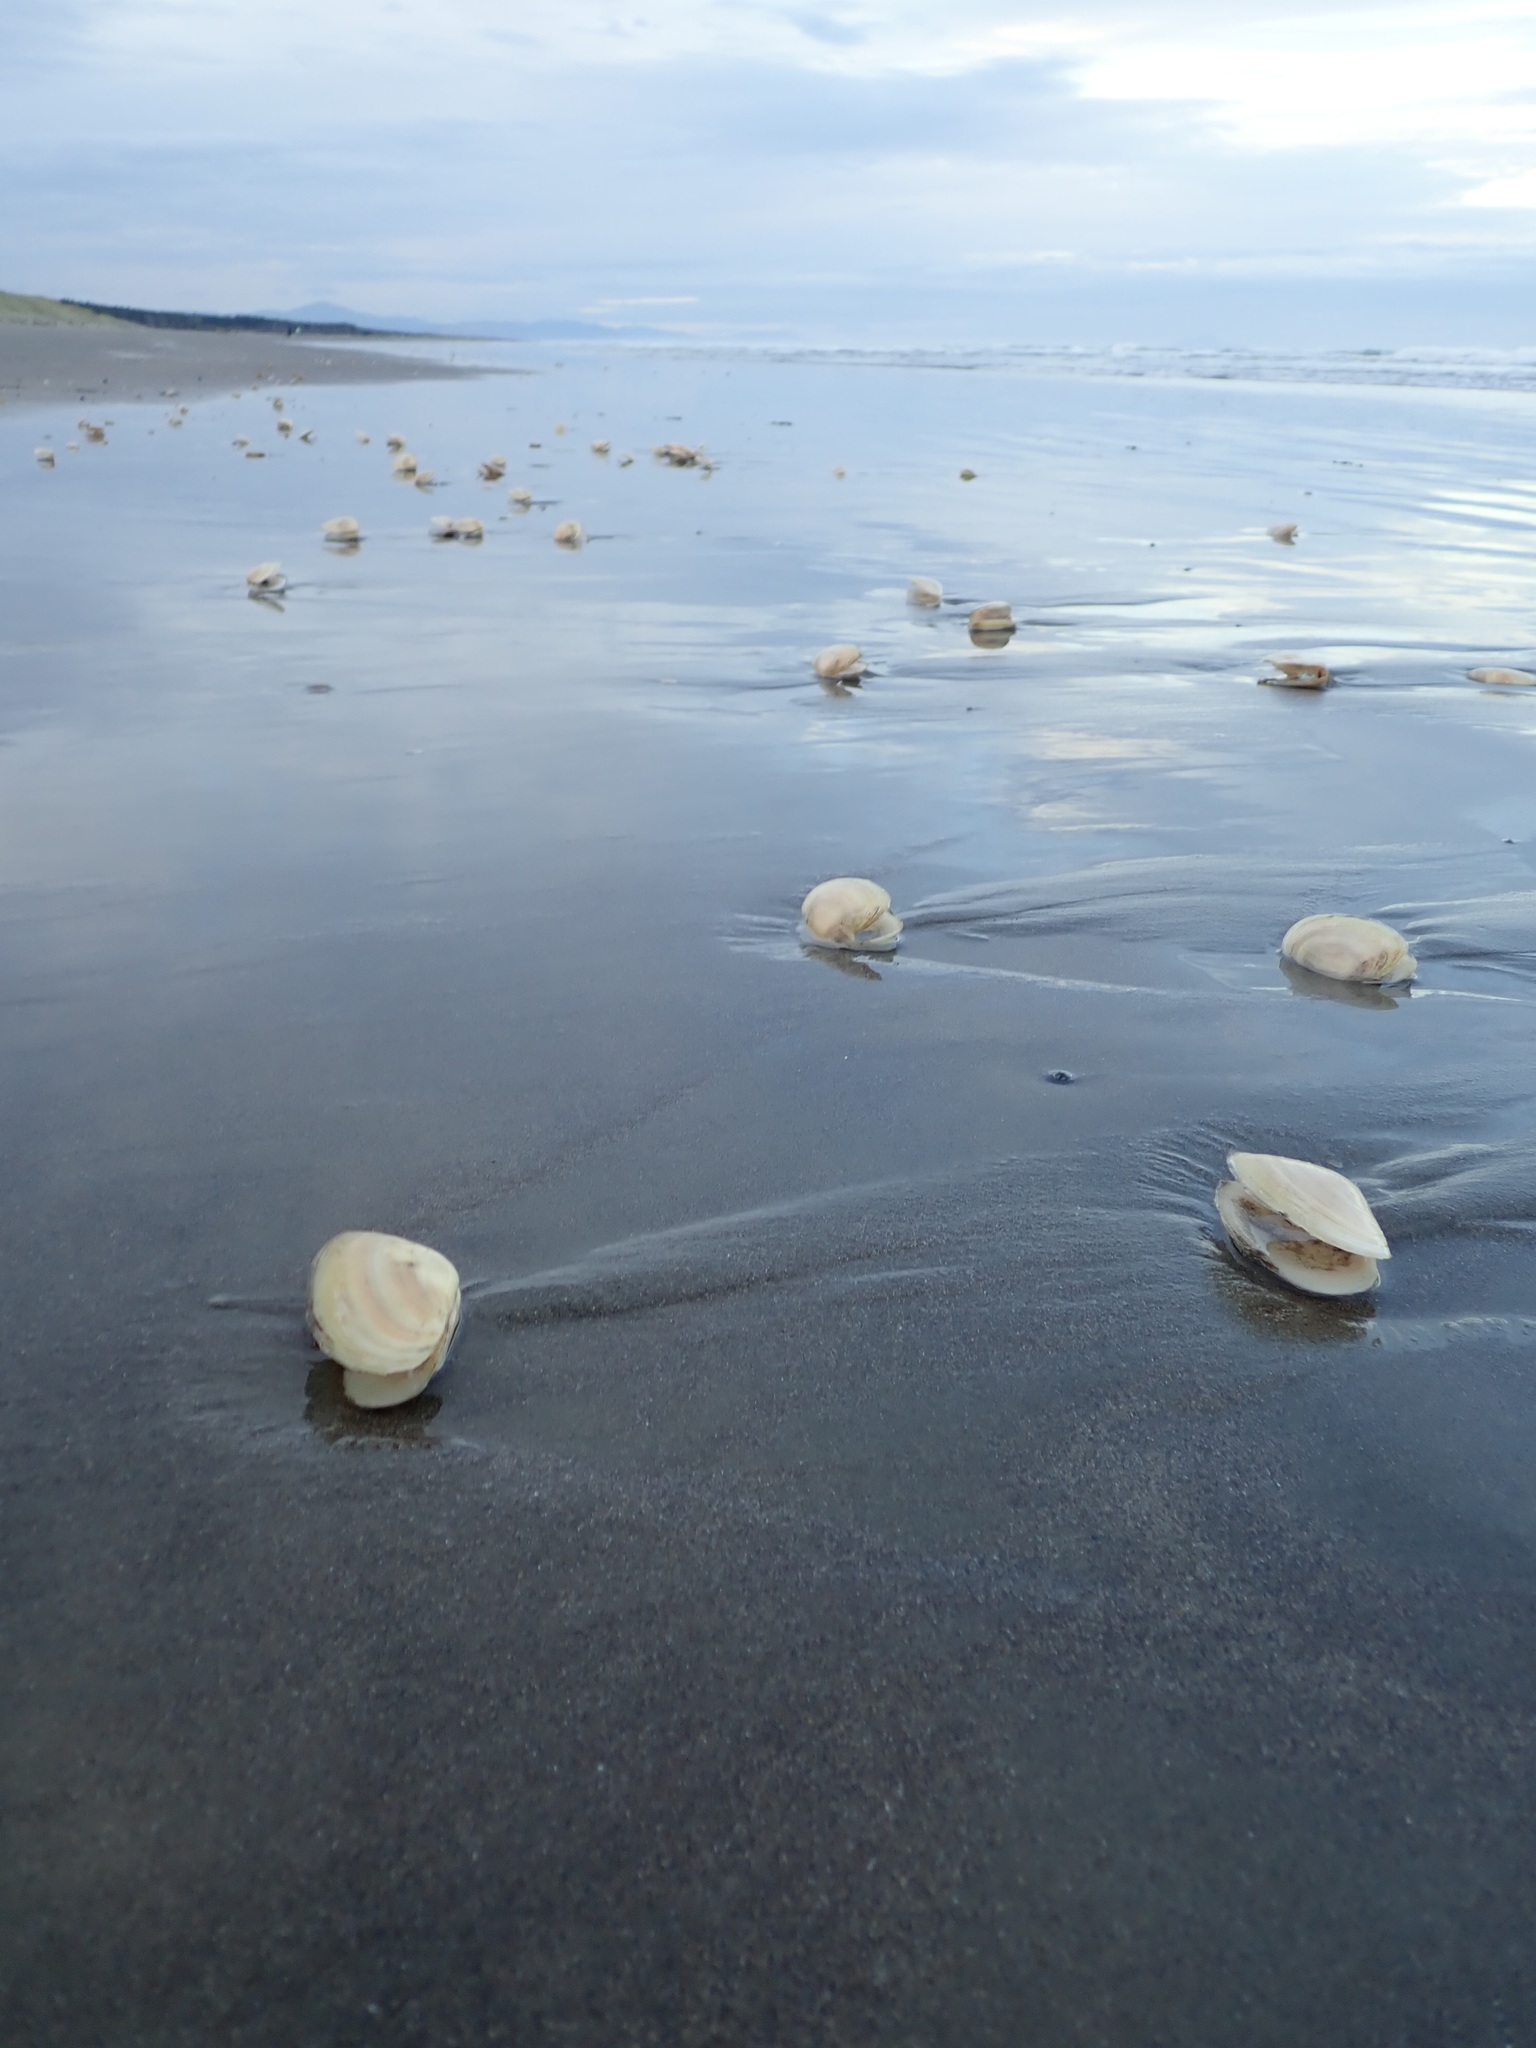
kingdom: Animalia
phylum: Mollusca
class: Bivalvia
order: Venerida
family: Mesodesmatidae
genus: Paphies
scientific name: Paphies donacina
